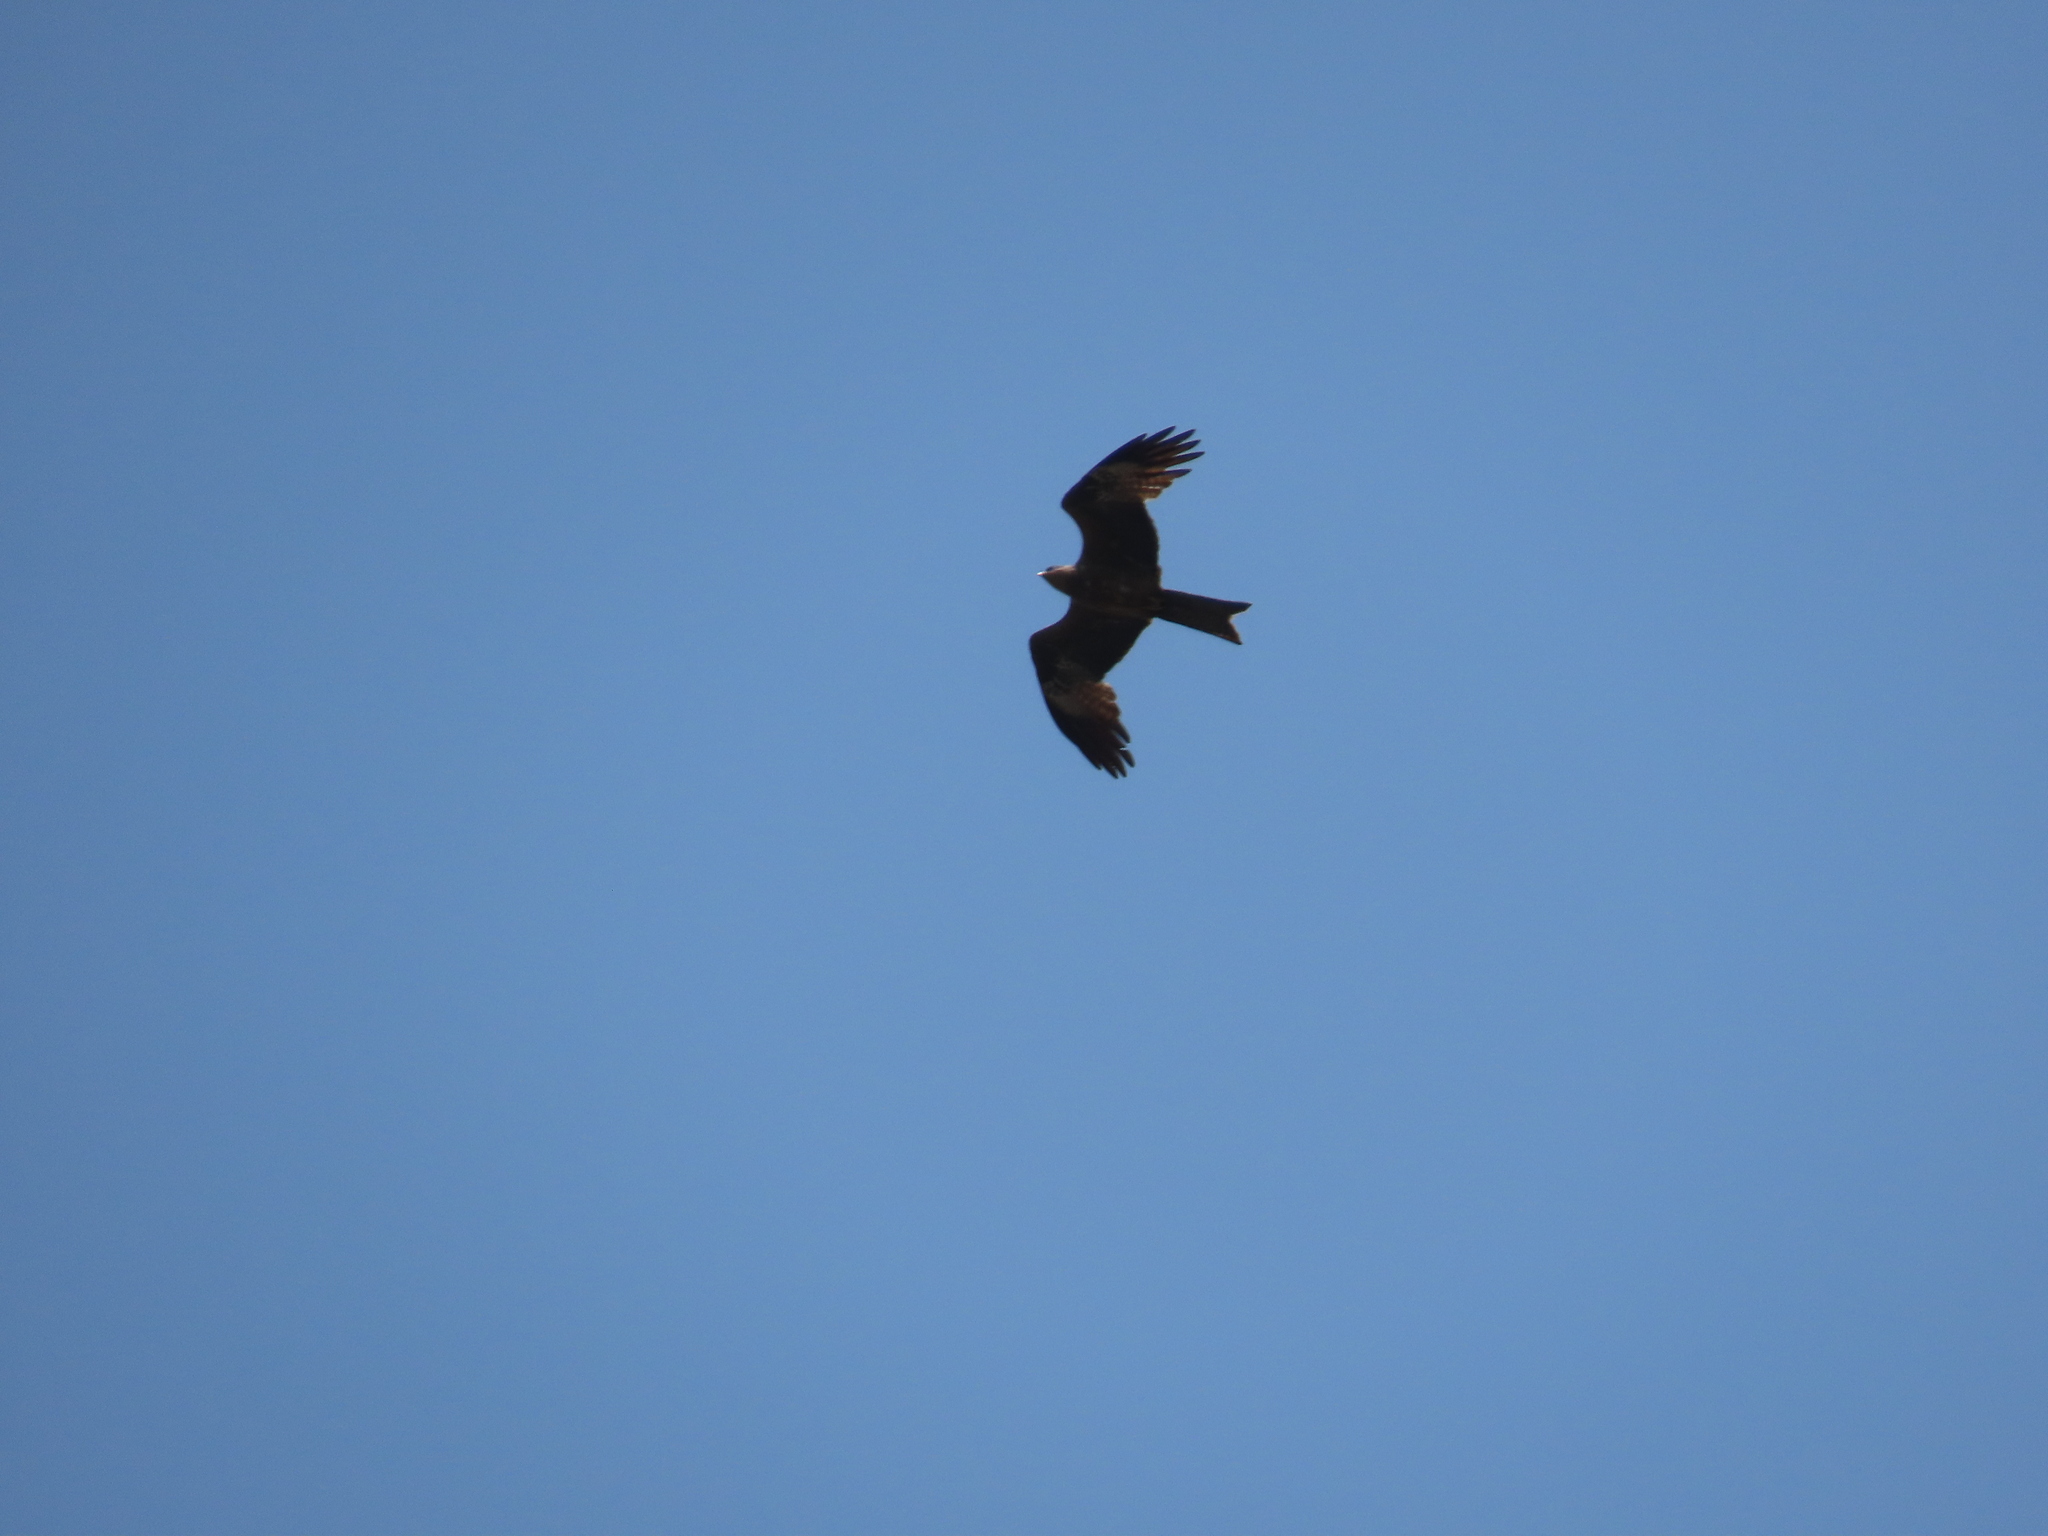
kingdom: Animalia
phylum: Chordata
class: Aves
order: Accipitriformes
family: Accipitridae
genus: Milvus
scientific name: Milvus migrans
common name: Black kite
